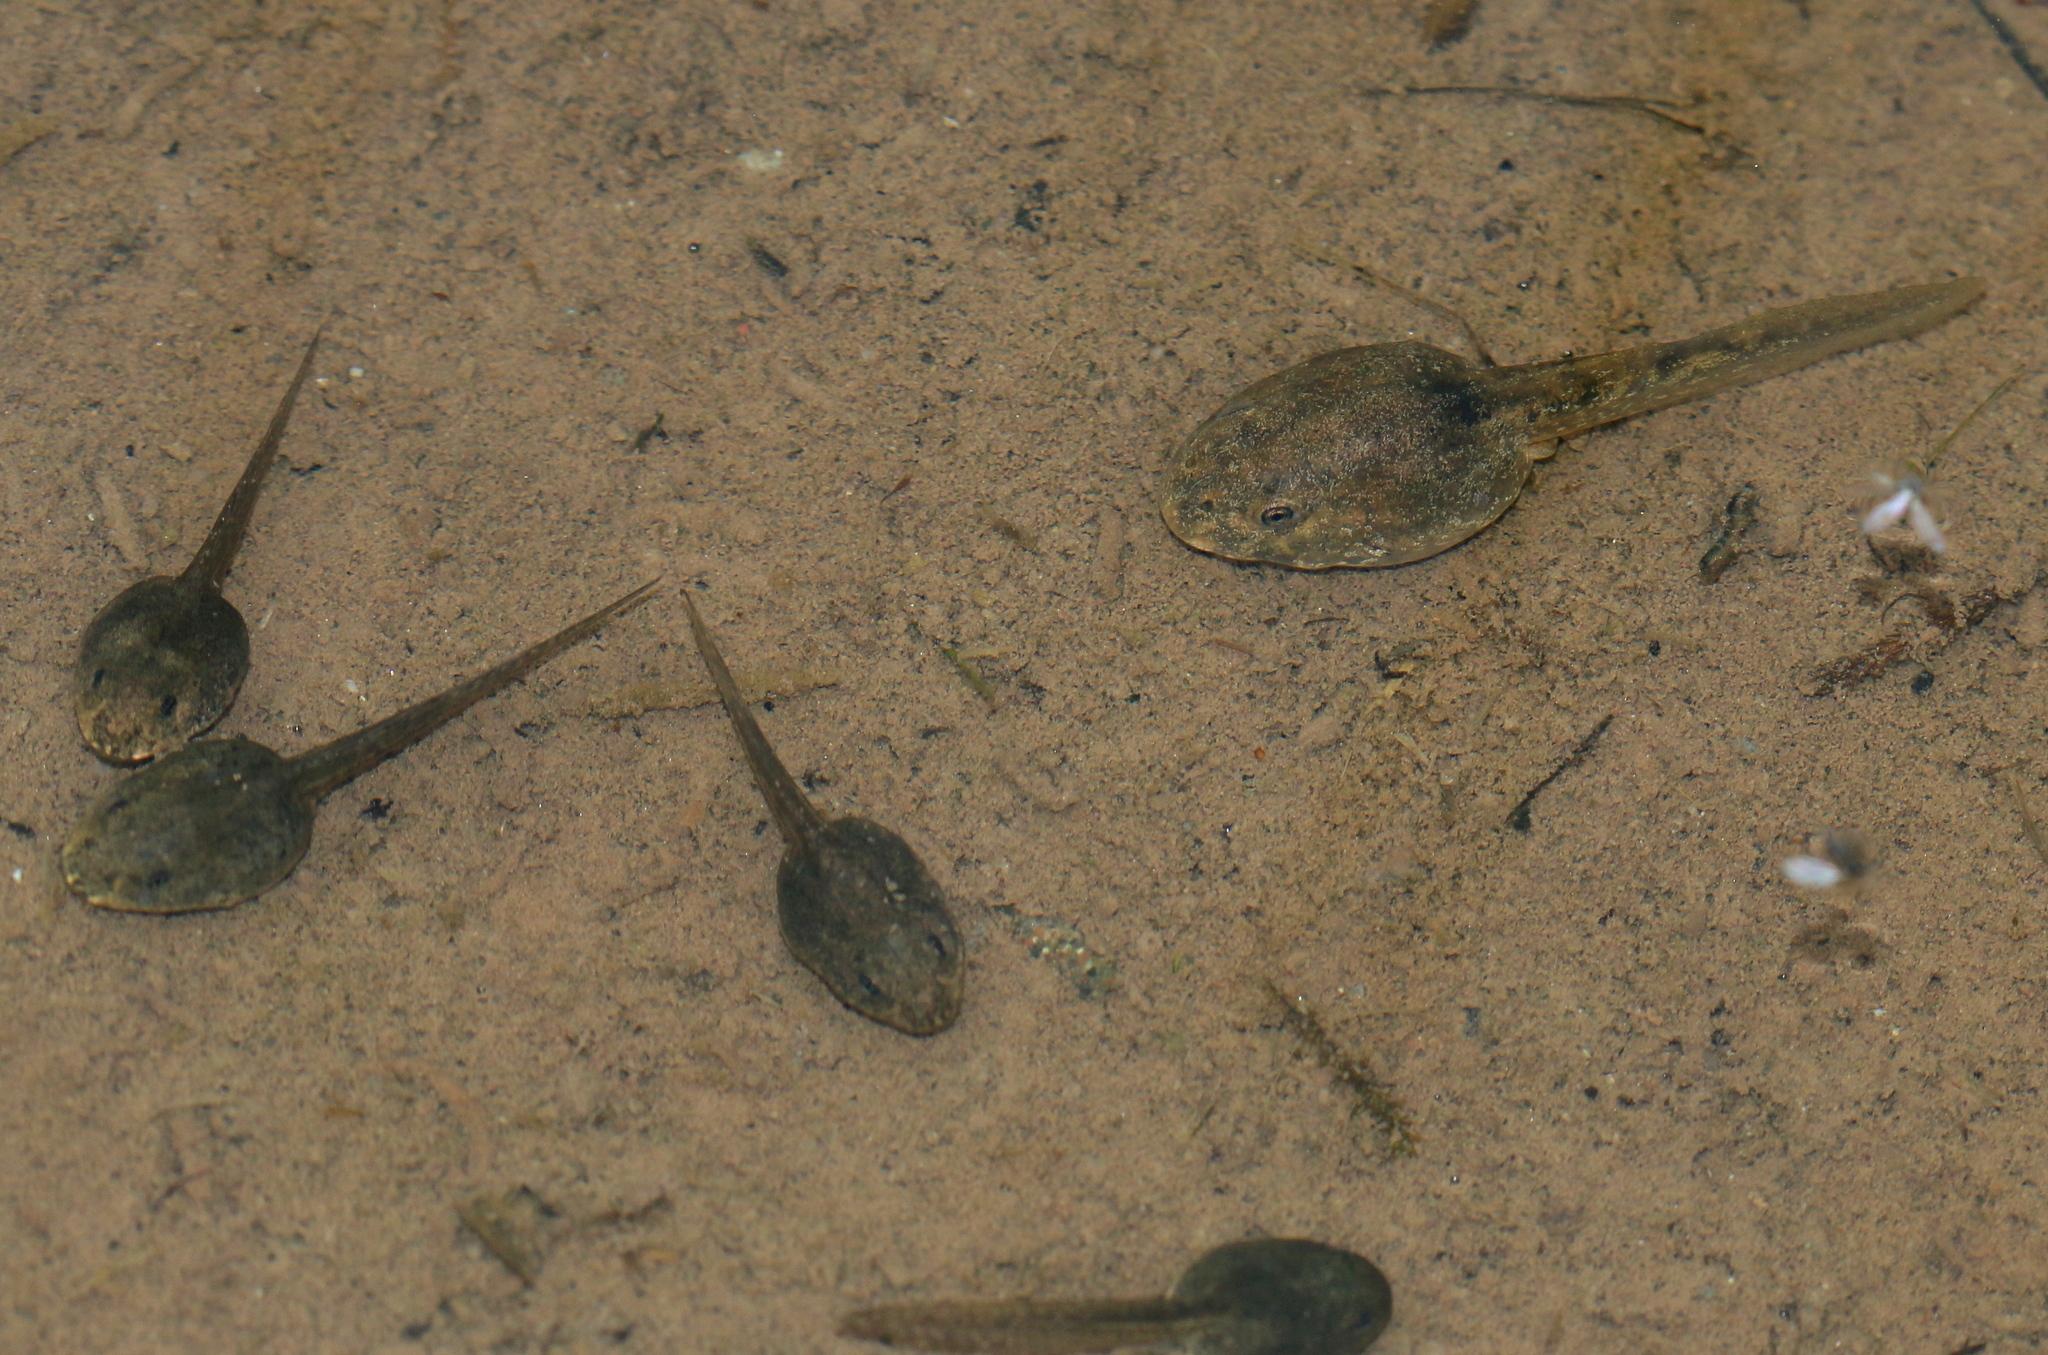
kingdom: Animalia
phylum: Chordata
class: Amphibia
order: Anura
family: Alytidae
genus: Alytes
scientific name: Alytes obstetricans
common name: Midwife toad
